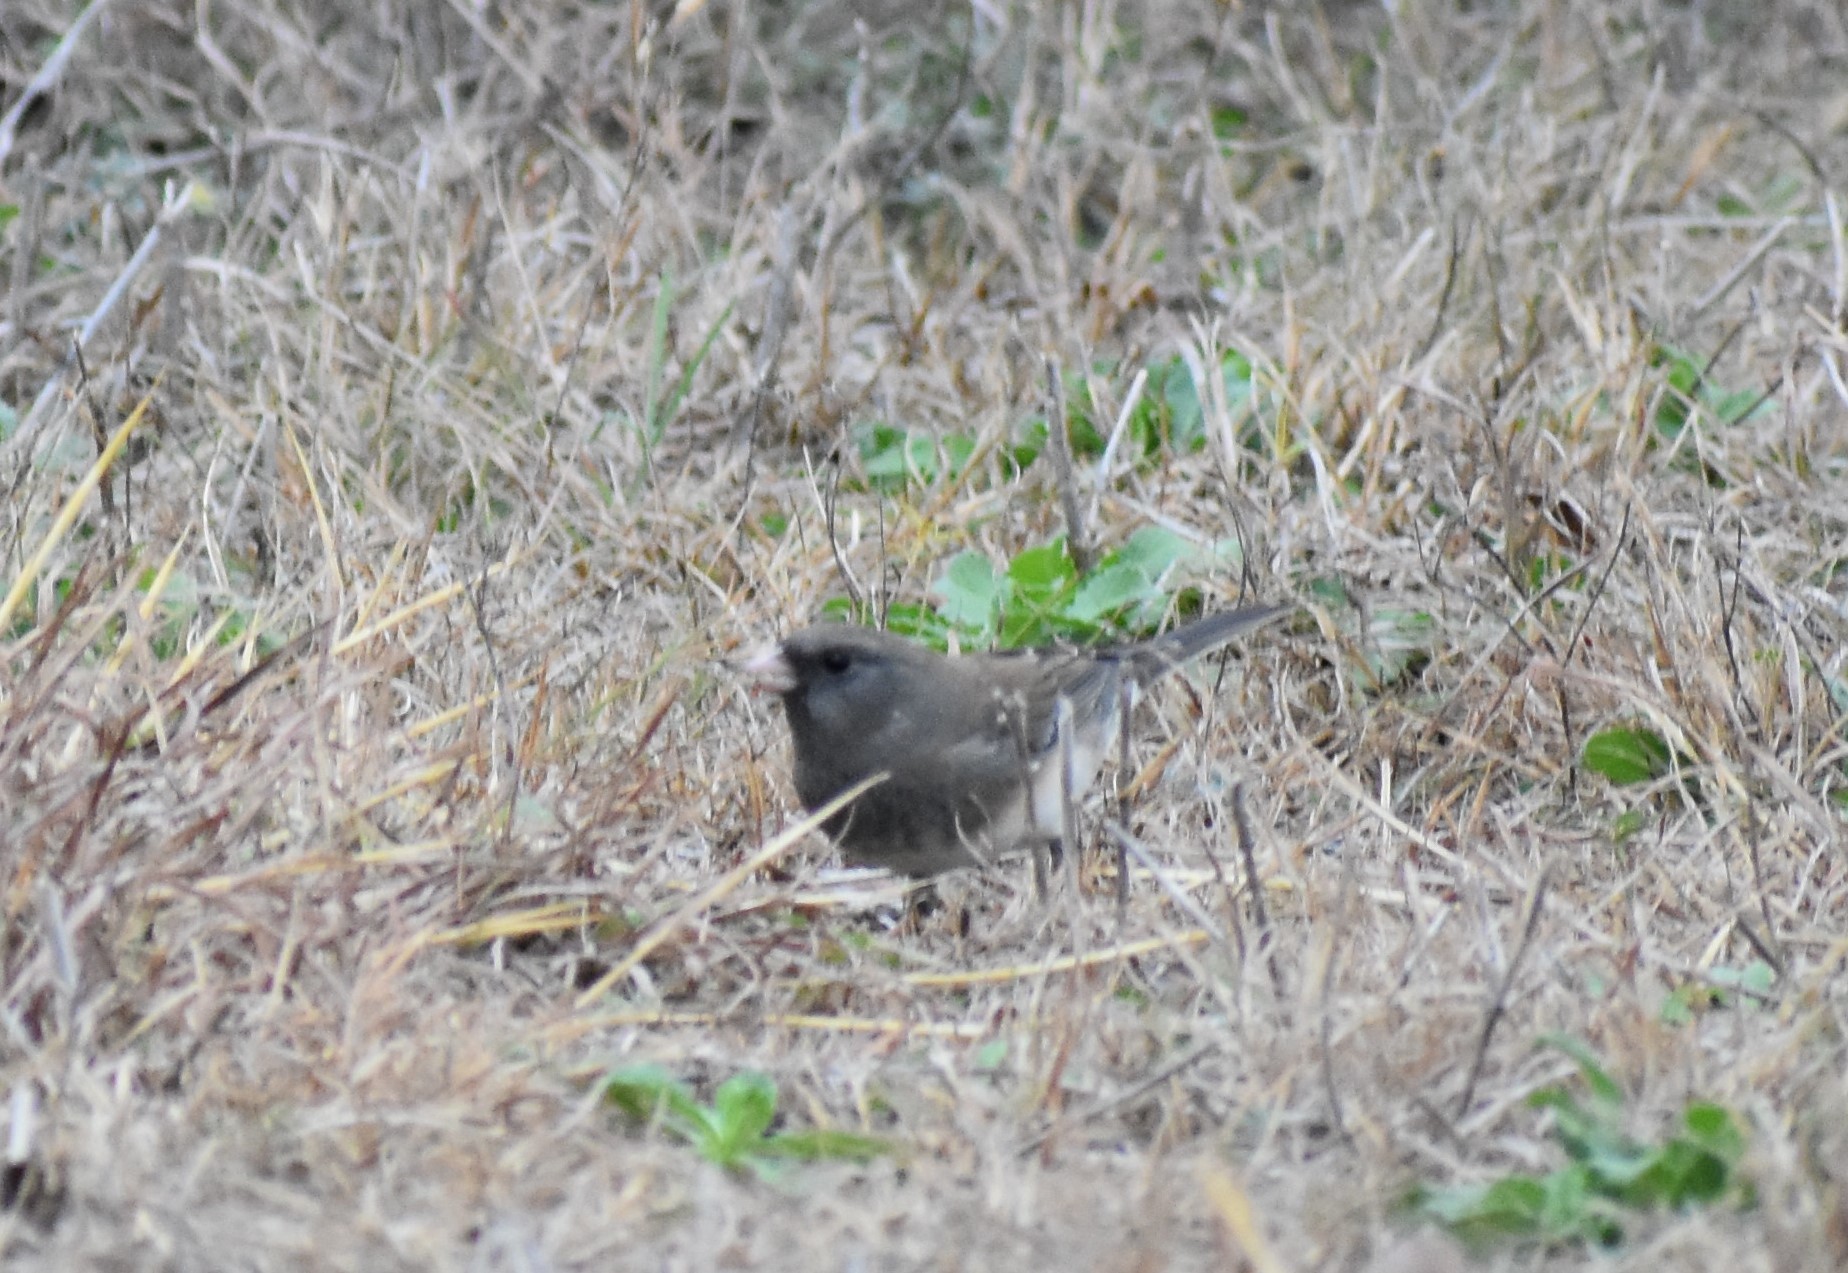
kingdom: Animalia
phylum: Chordata
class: Aves
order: Passeriformes
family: Passerellidae
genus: Junco
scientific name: Junco hyemalis
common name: Dark-eyed junco
